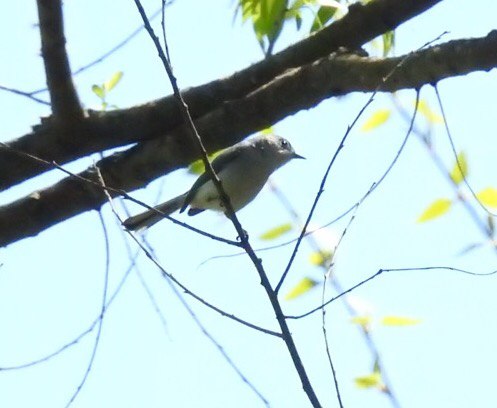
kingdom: Animalia
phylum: Chordata
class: Aves
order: Passeriformes
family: Polioptilidae
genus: Polioptila
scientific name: Polioptila caerulea
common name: Blue-gray gnatcatcher
